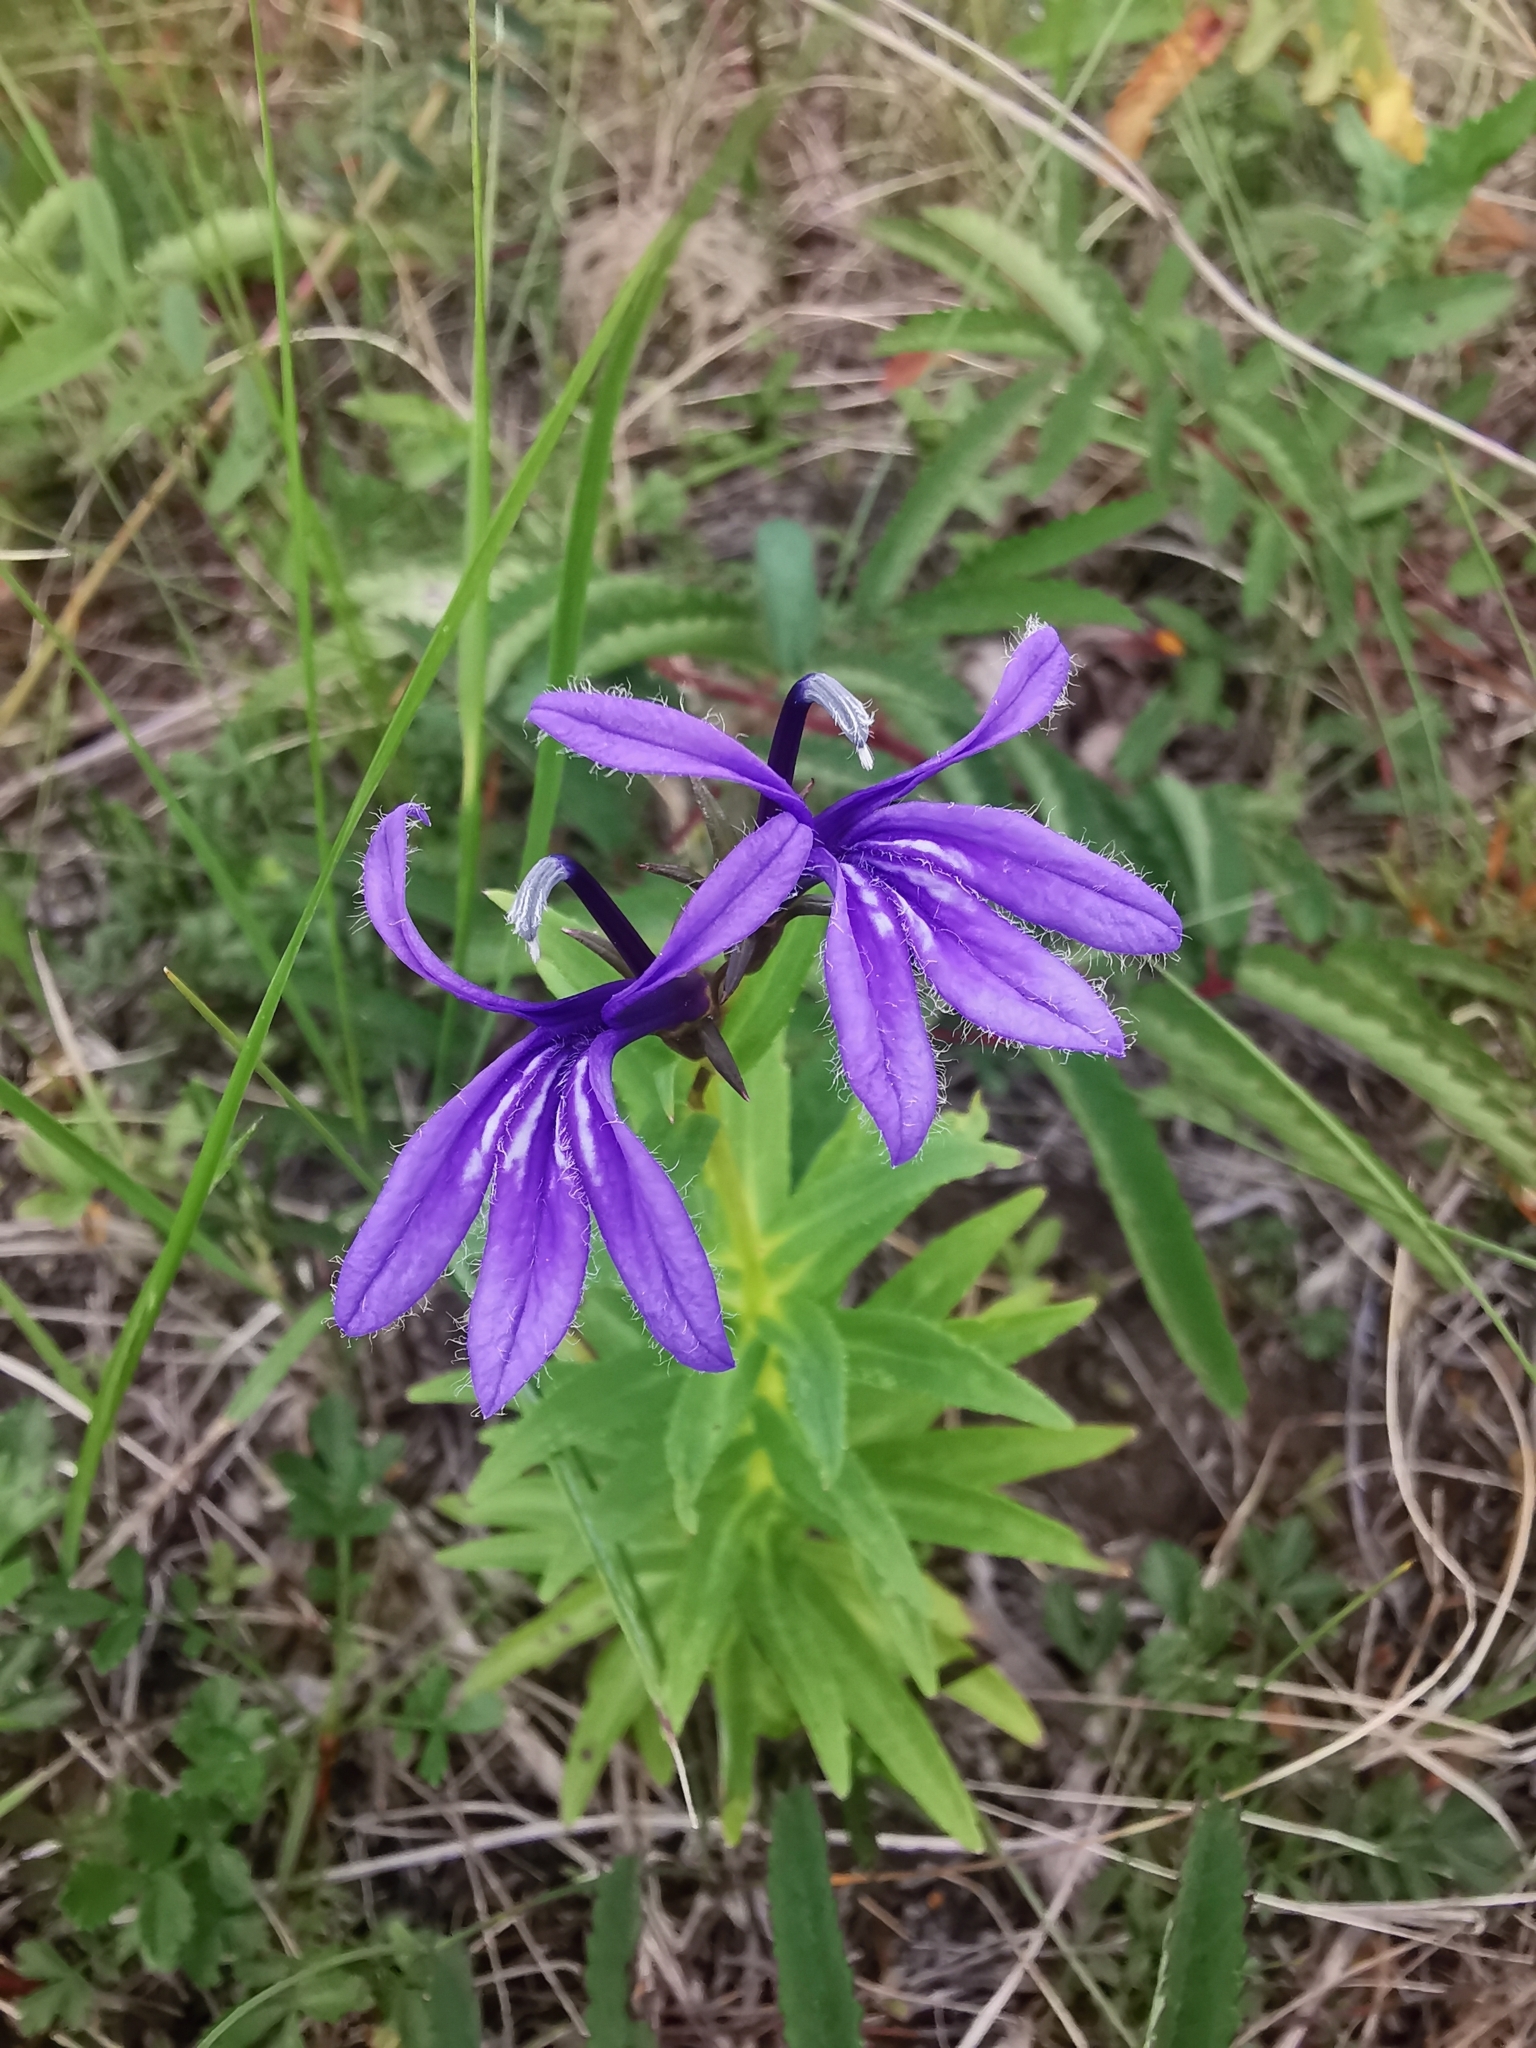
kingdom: Plantae
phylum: Tracheophyta
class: Magnoliopsida
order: Asterales
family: Campanulaceae
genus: Lobelia
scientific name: Lobelia sessilifolia
